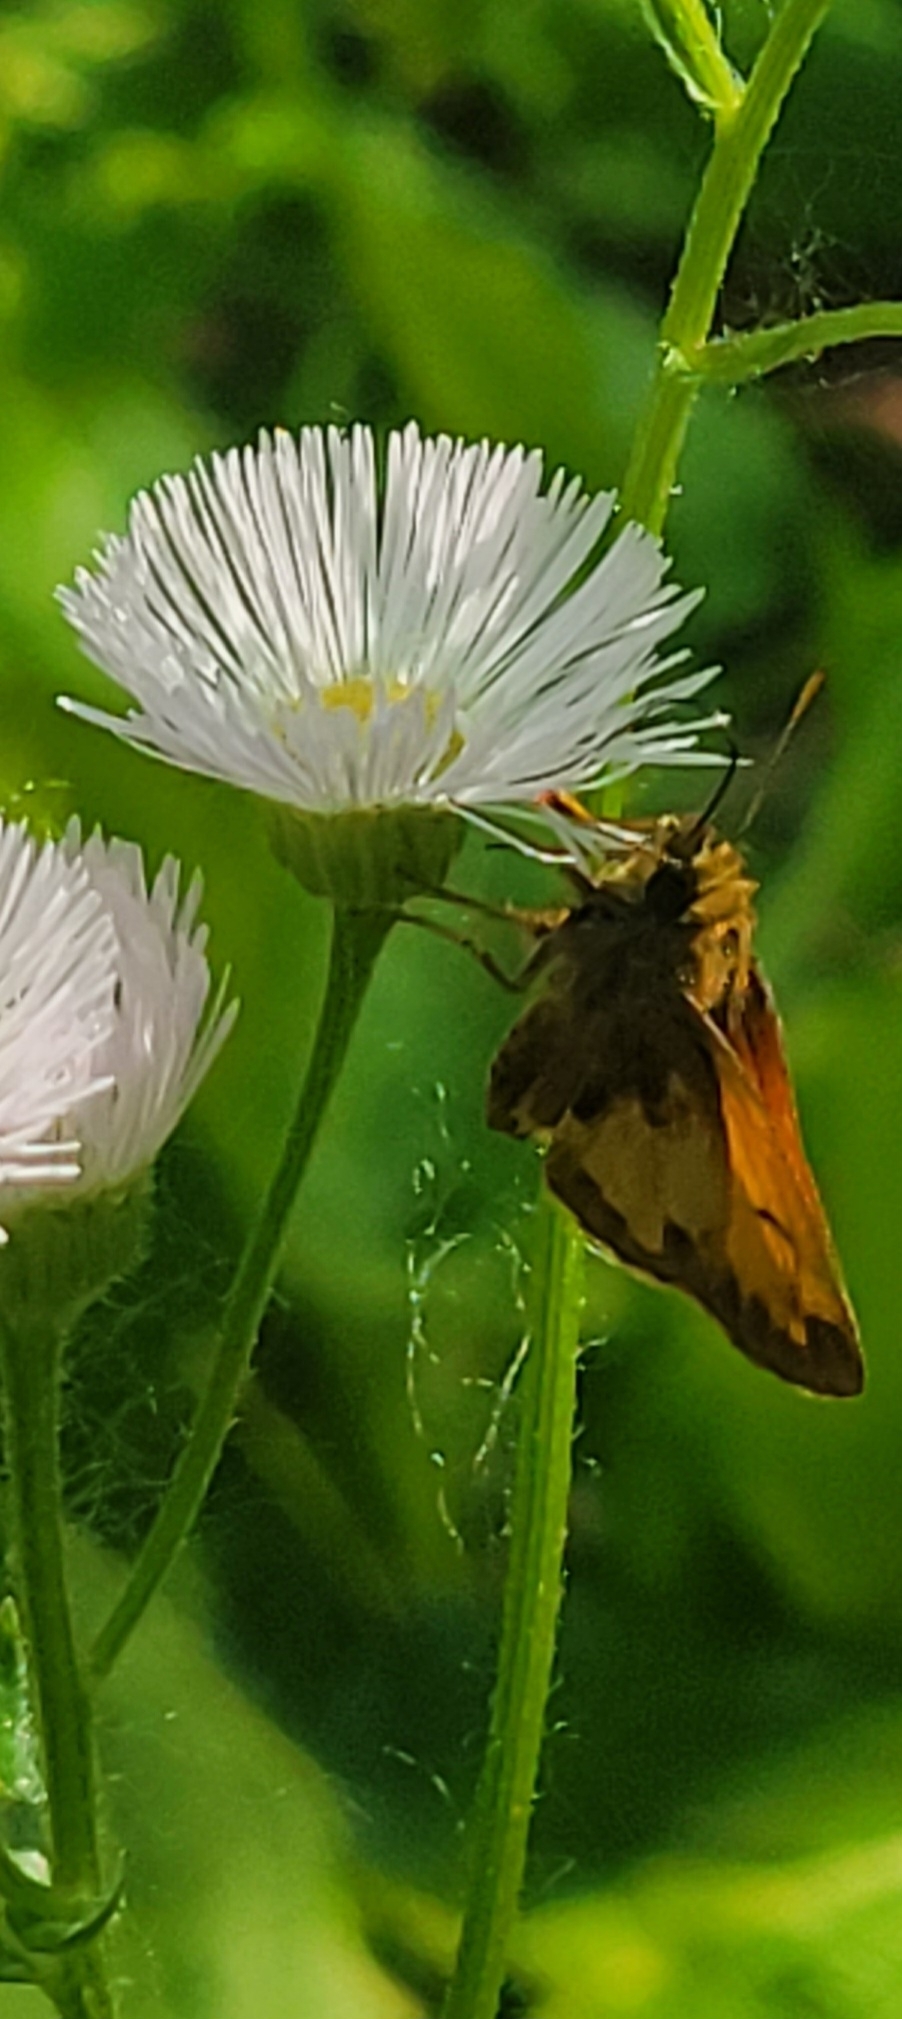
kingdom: Animalia
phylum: Arthropoda
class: Insecta
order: Lepidoptera
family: Hesperiidae
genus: Lon
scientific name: Lon hobomok
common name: Hobomok skipper
